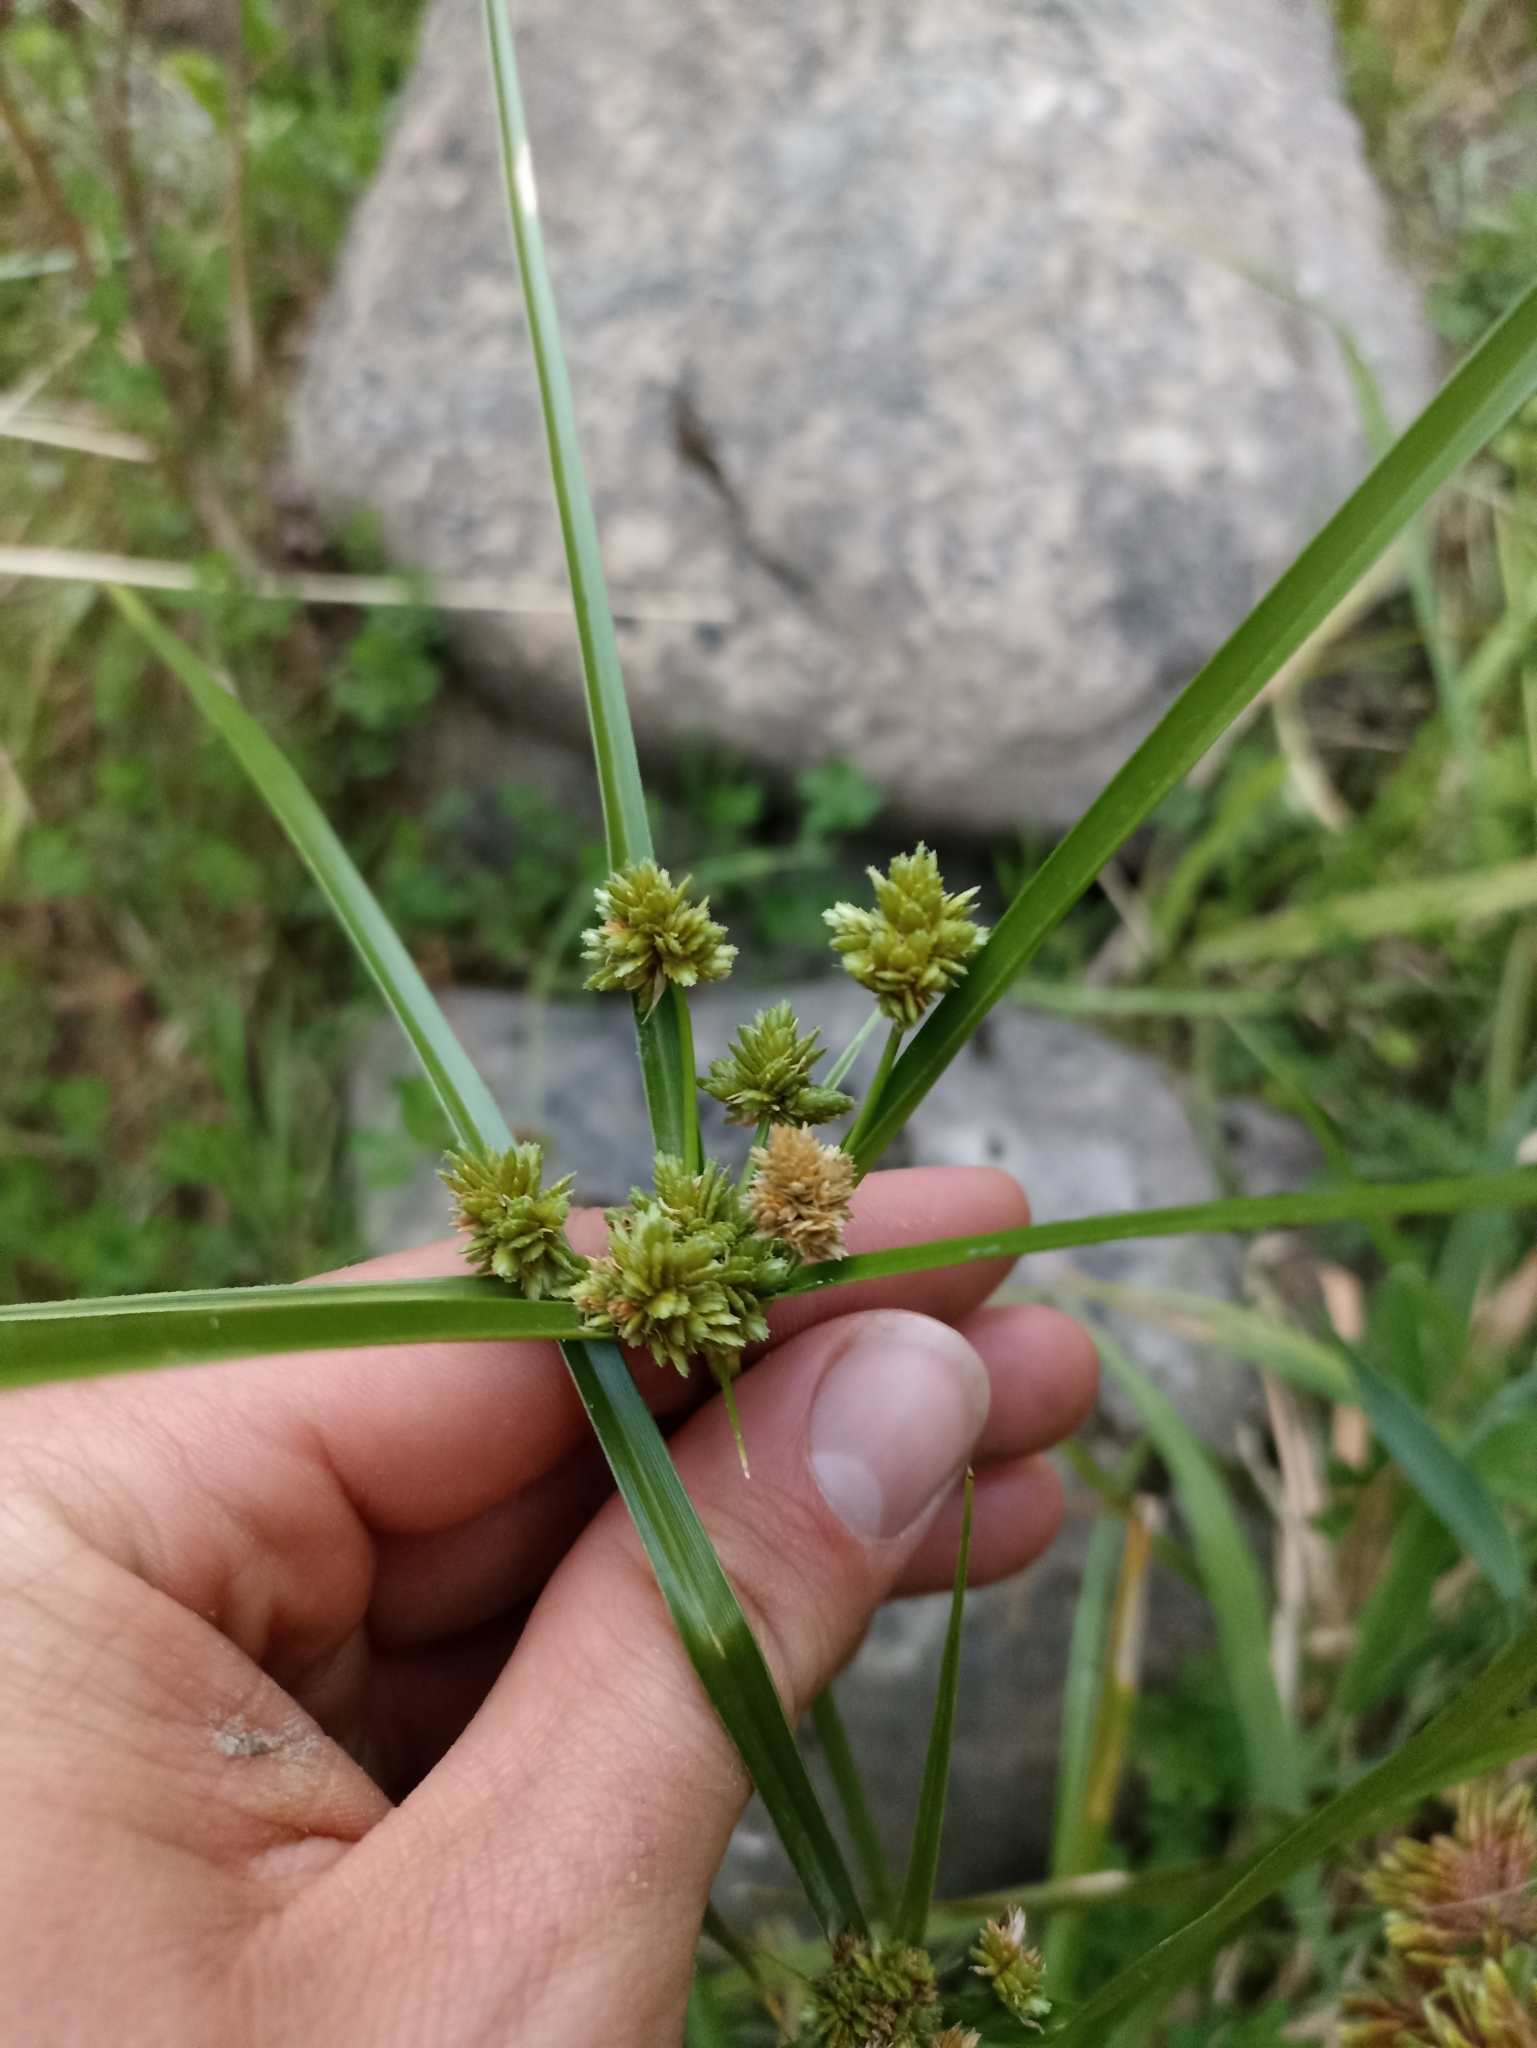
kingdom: Plantae
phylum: Tracheophyta
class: Liliopsida
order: Poales
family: Cyperaceae
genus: Cyperus
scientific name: Cyperus eragrostis
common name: Tall flatsedge
